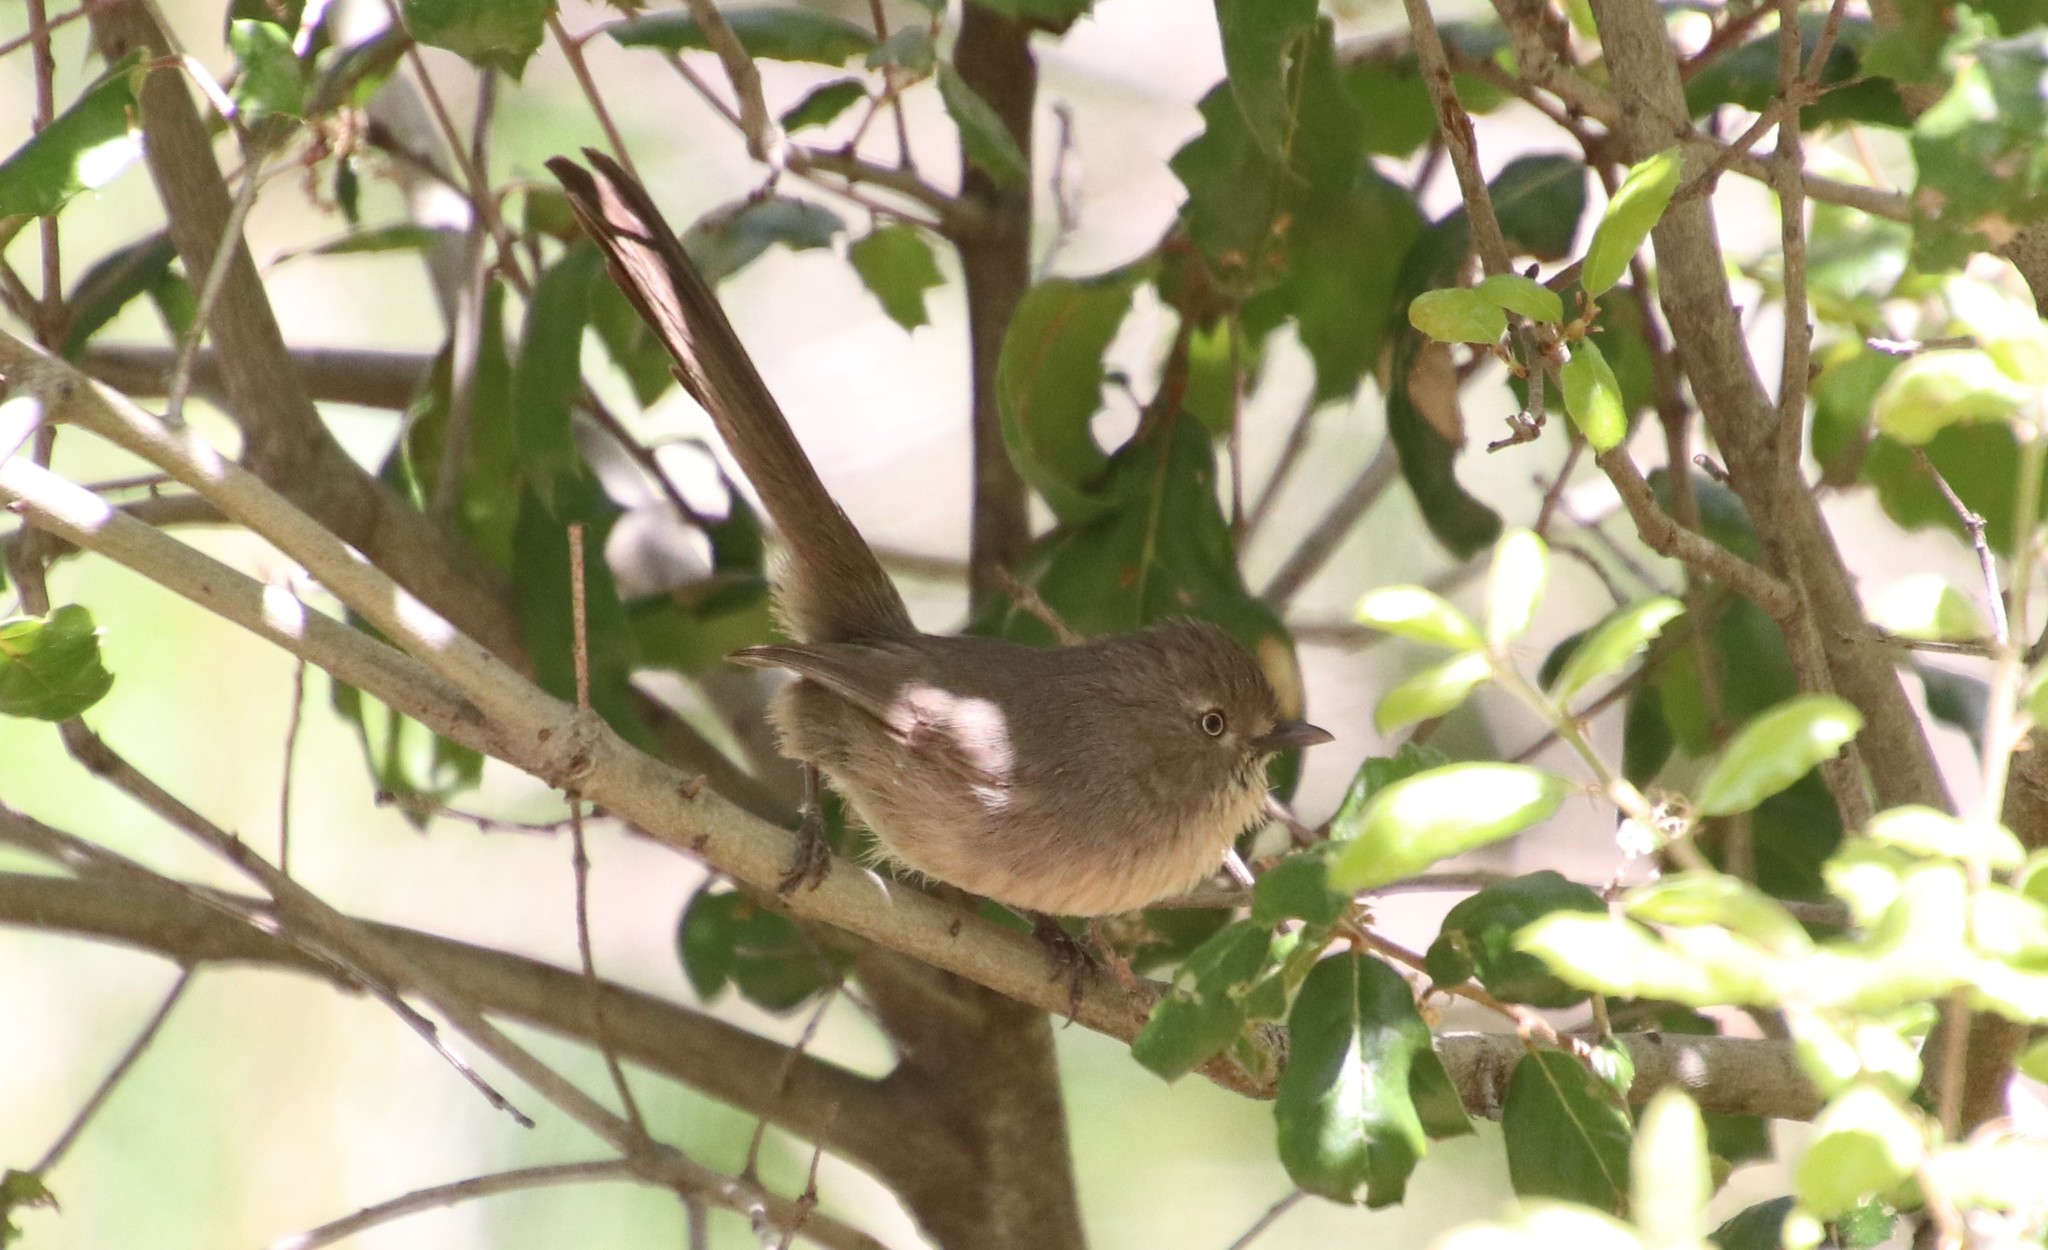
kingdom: Animalia
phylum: Chordata
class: Aves
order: Passeriformes
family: Sylviidae
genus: Chamaea
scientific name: Chamaea fasciata
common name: Wrentit
